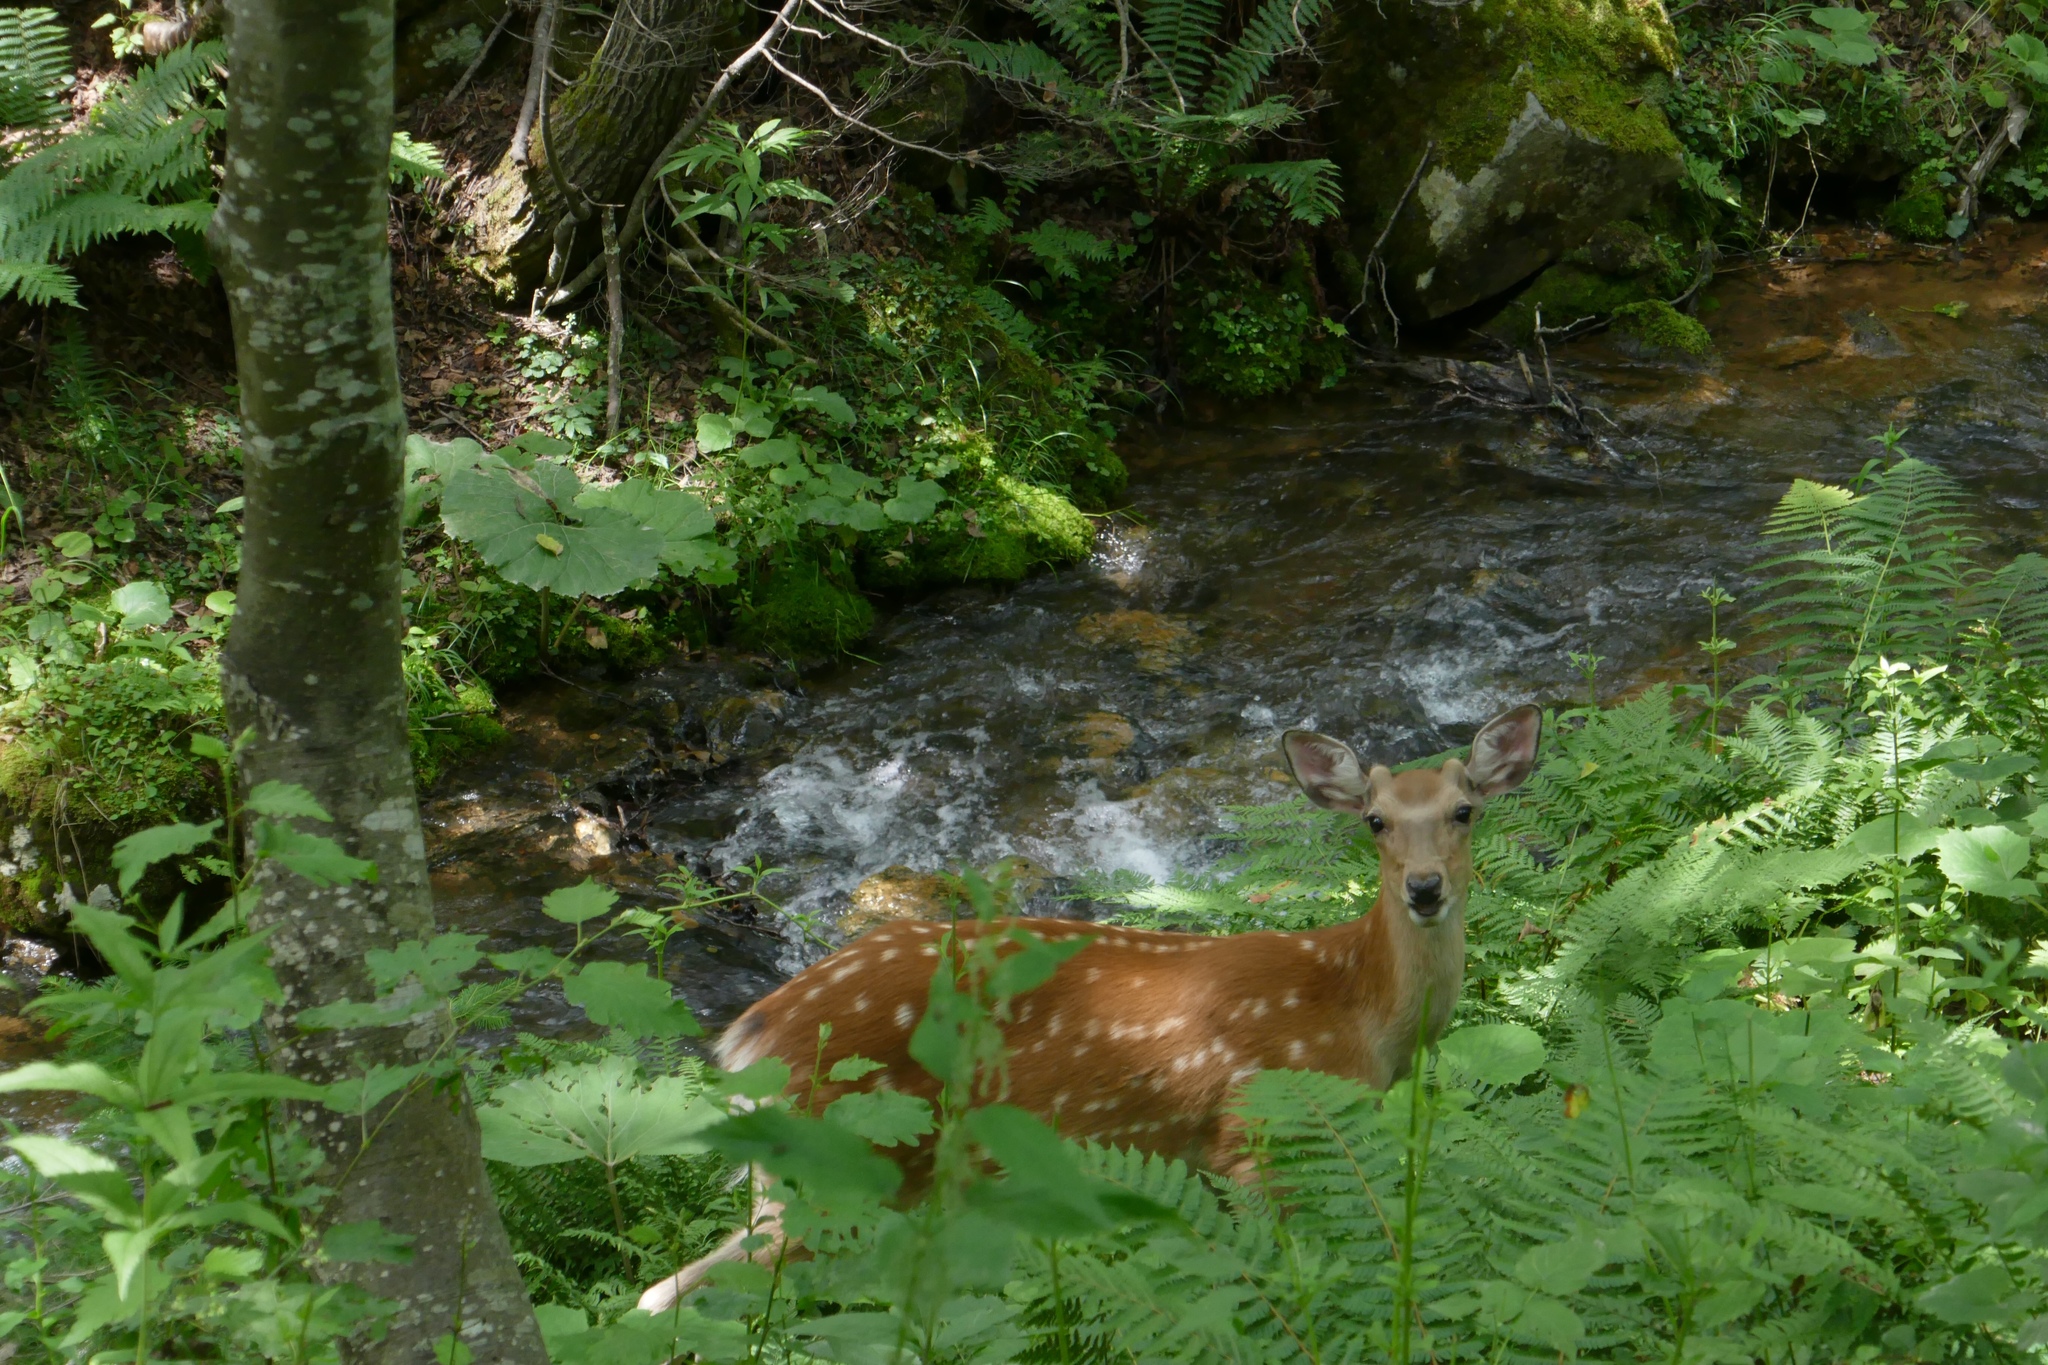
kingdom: Animalia
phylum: Chordata
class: Mammalia
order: Artiodactyla
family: Cervidae
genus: Cervus
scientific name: Cervus nippon
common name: Sika deer
